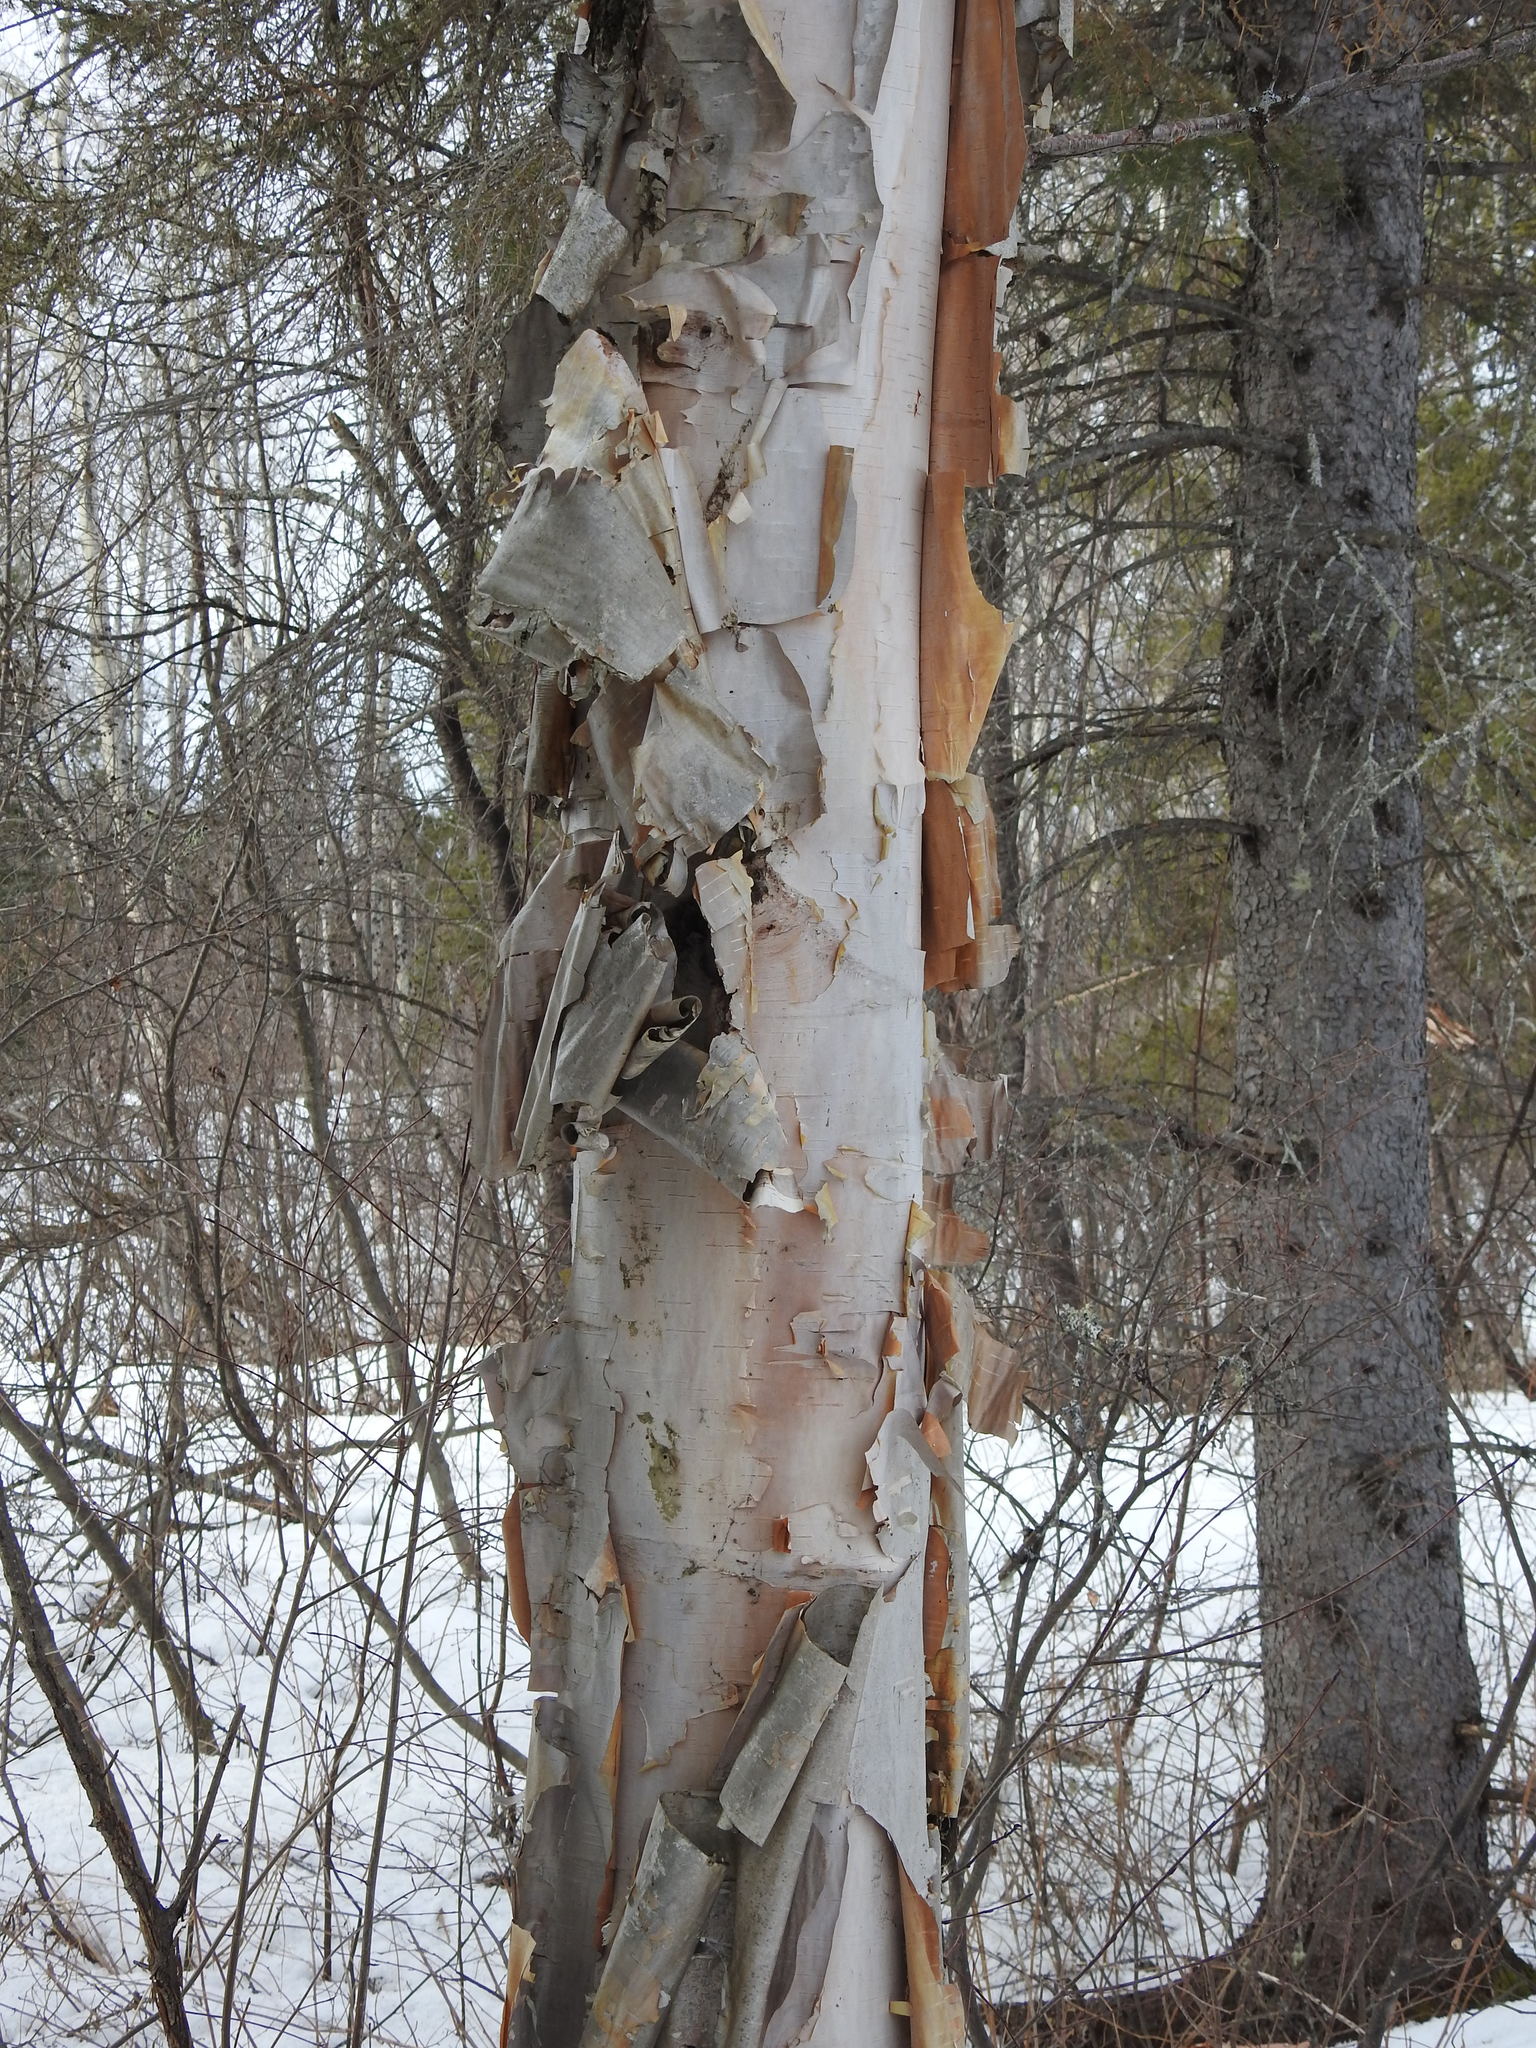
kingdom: Plantae
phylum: Tracheophyta
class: Magnoliopsida
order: Fagales
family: Betulaceae
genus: Betula
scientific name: Betula papyrifera
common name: Paper birch
